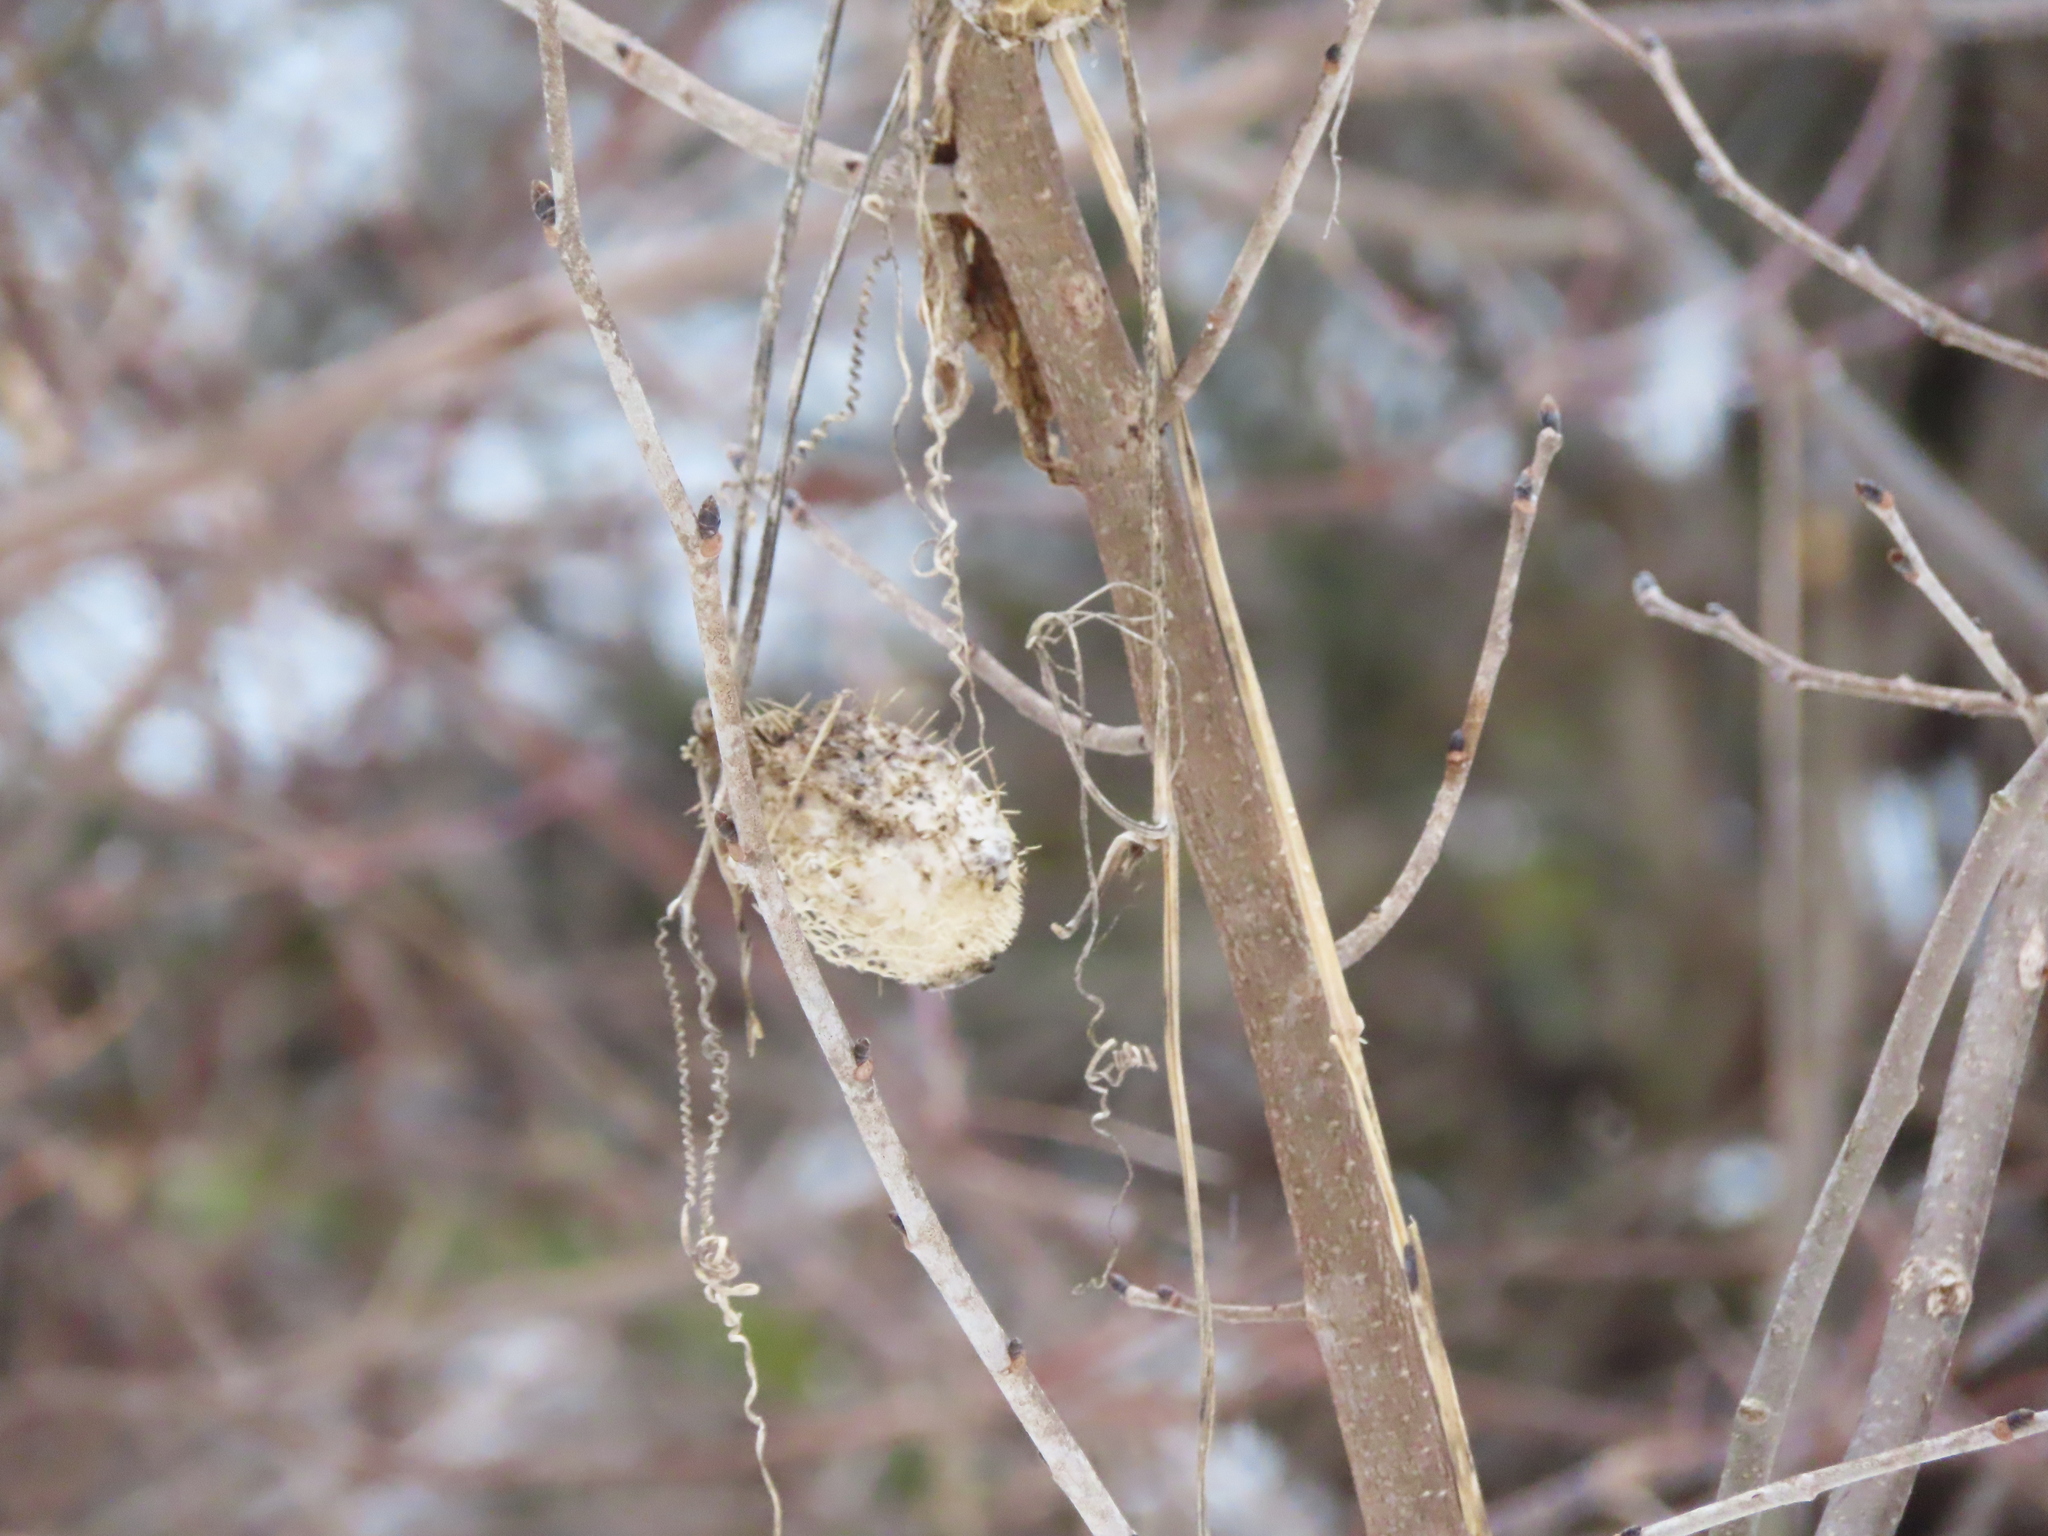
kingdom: Plantae
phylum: Tracheophyta
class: Magnoliopsida
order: Cucurbitales
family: Cucurbitaceae
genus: Echinocystis
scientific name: Echinocystis lobata
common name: Wild cucumber
